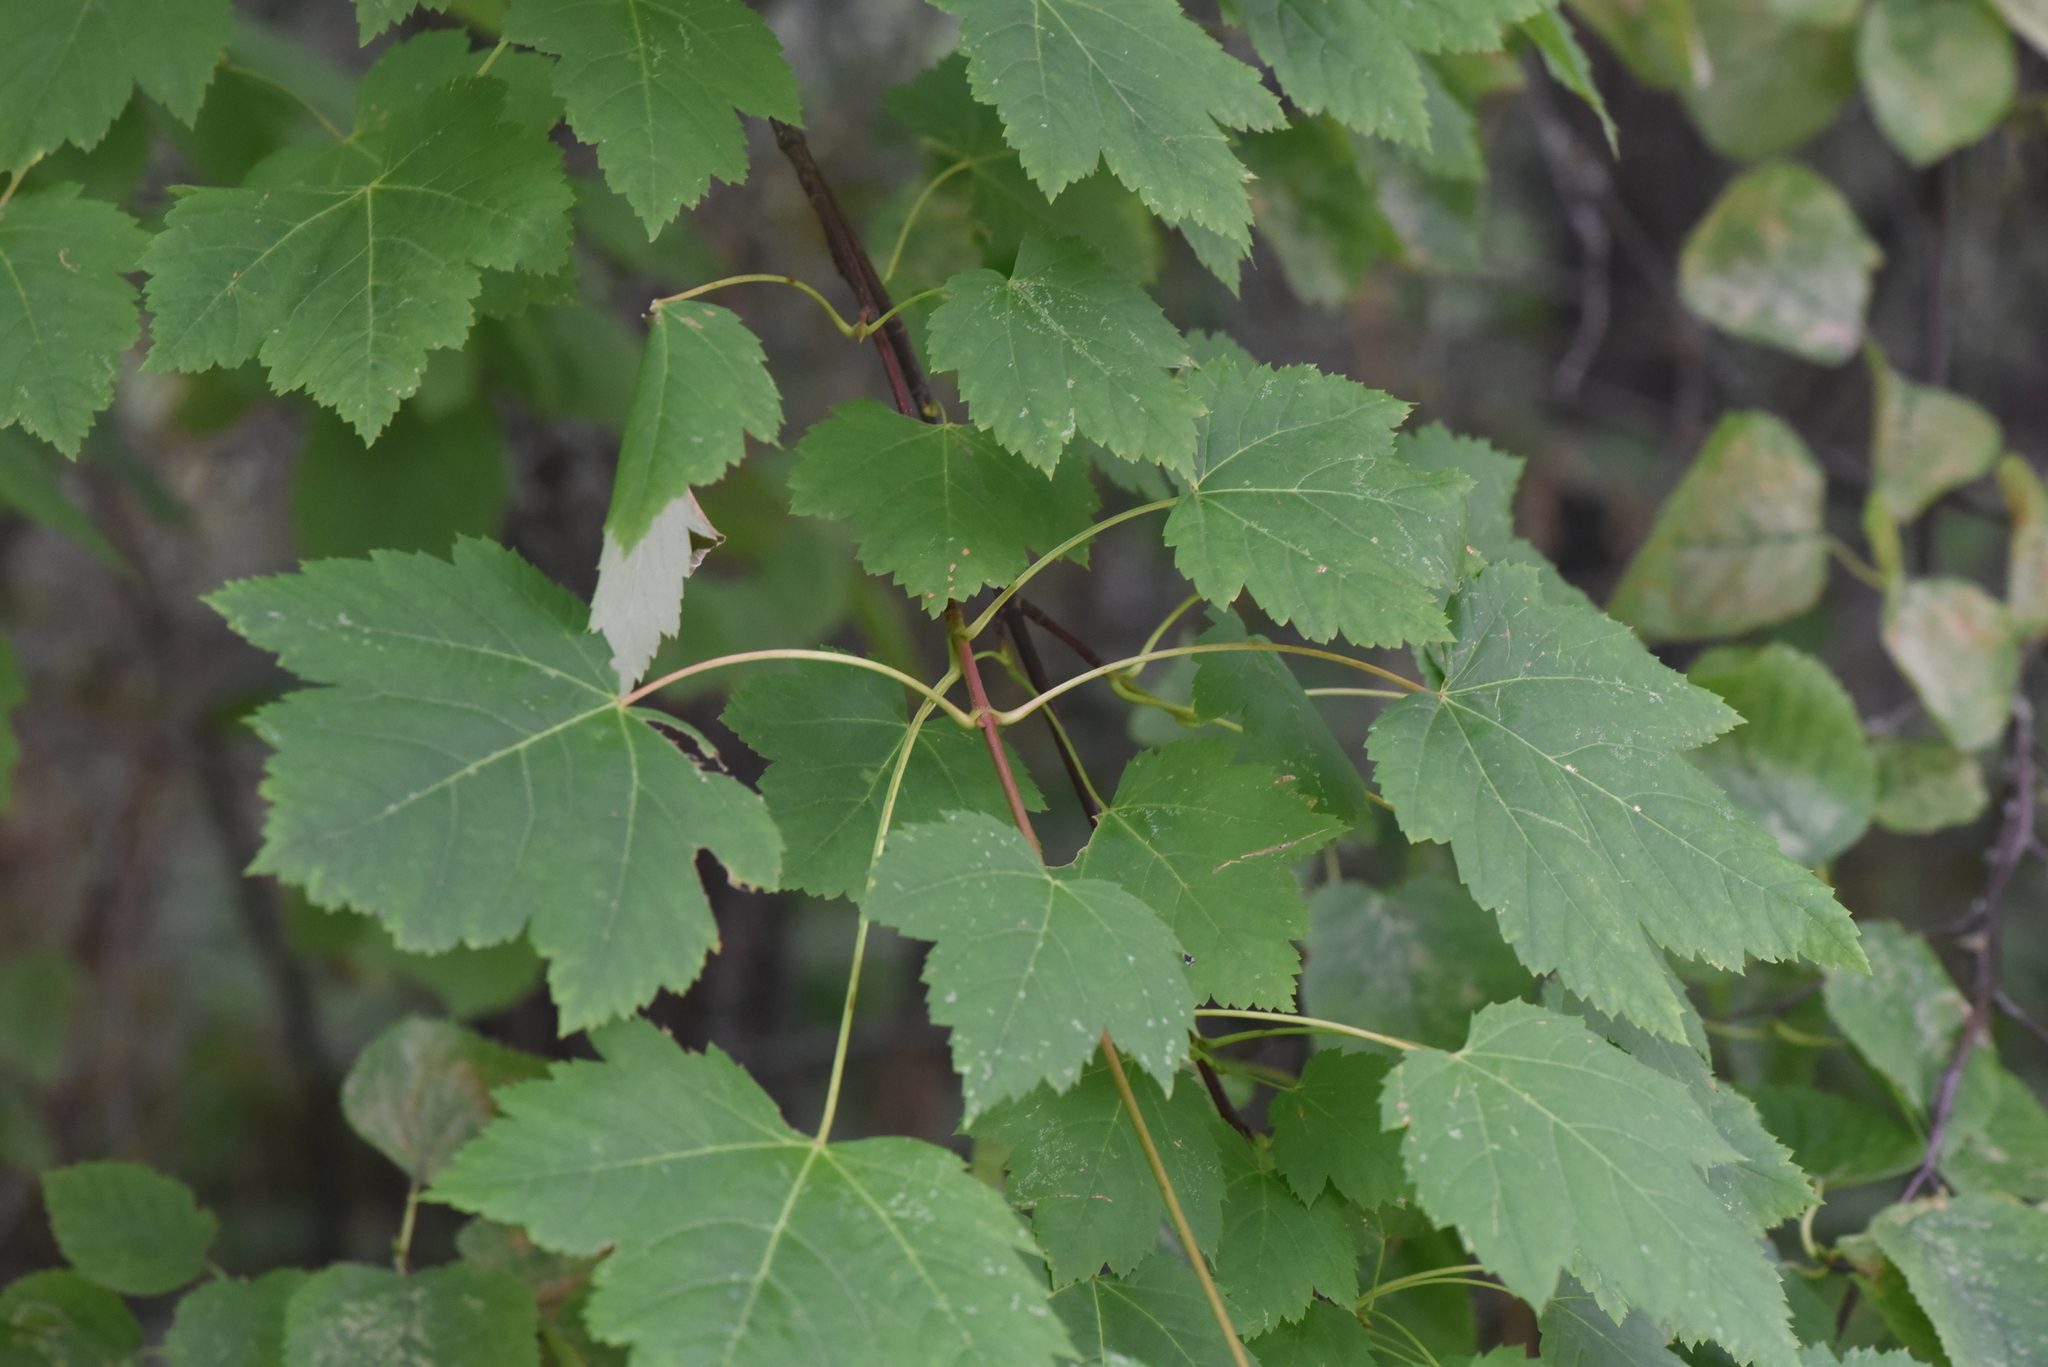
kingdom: Plantae
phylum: Tracheophyta
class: Magnoliopsida
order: Sapindales
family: Sapindaceae
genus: Acer
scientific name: Acer glabrum
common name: Rocky mountain maple
